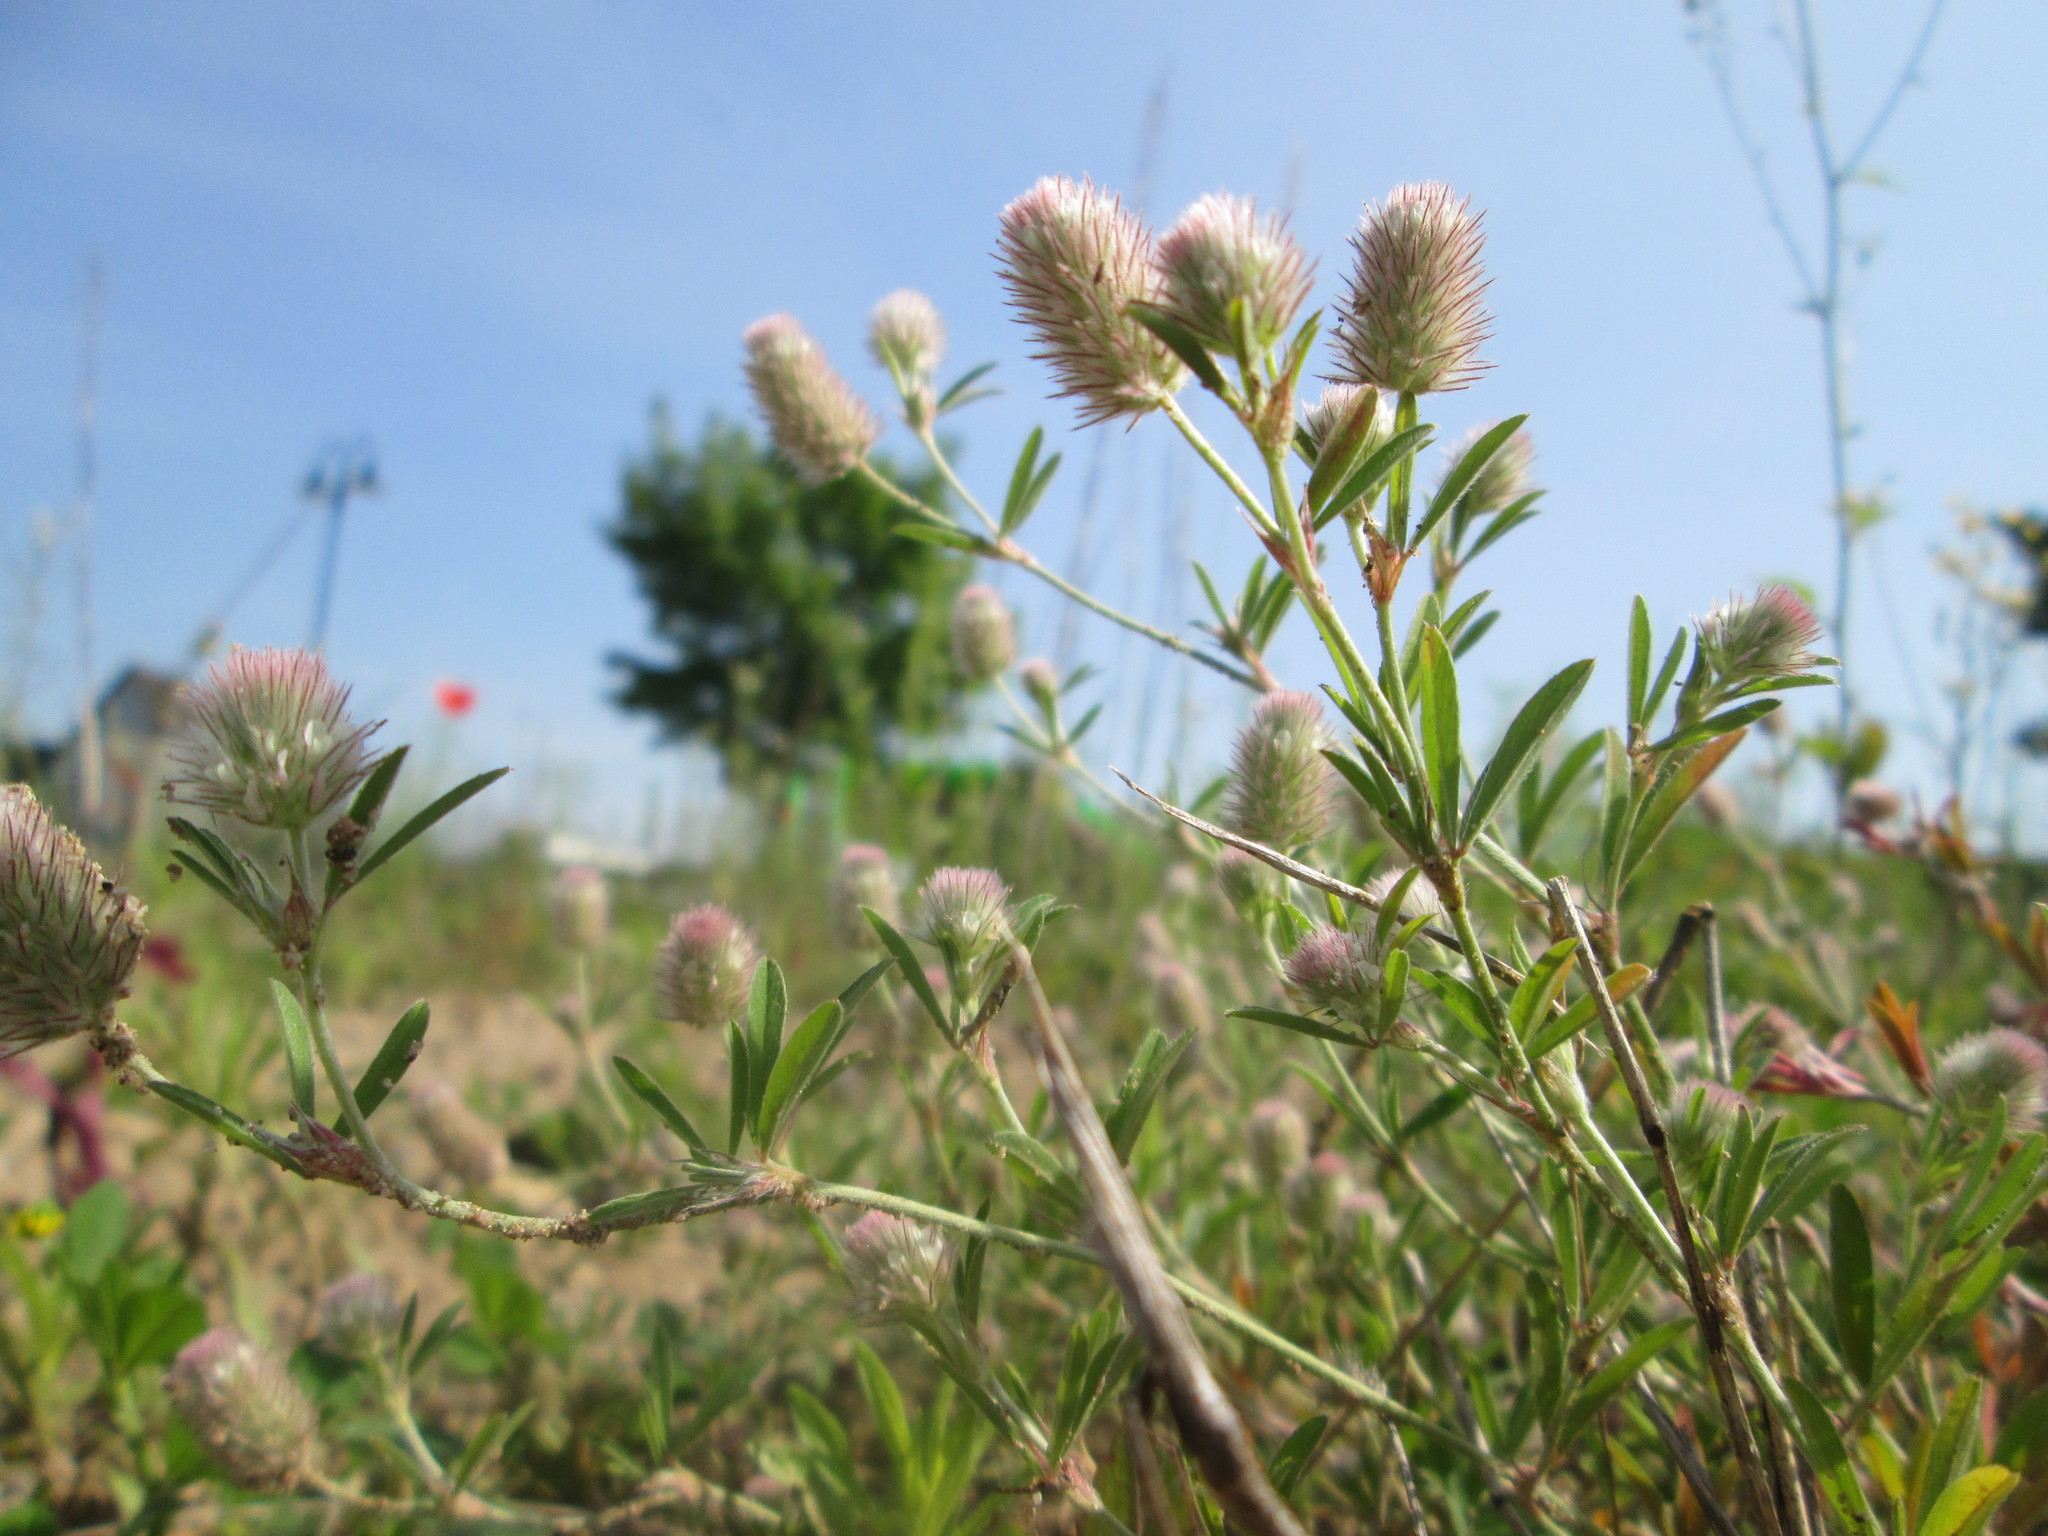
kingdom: Plantae
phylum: Tracheophyta
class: Magnoliopsida
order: Fabales
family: Fabaceae
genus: Trifolium
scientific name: Trifolium arvense
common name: Hare's-foot clover
